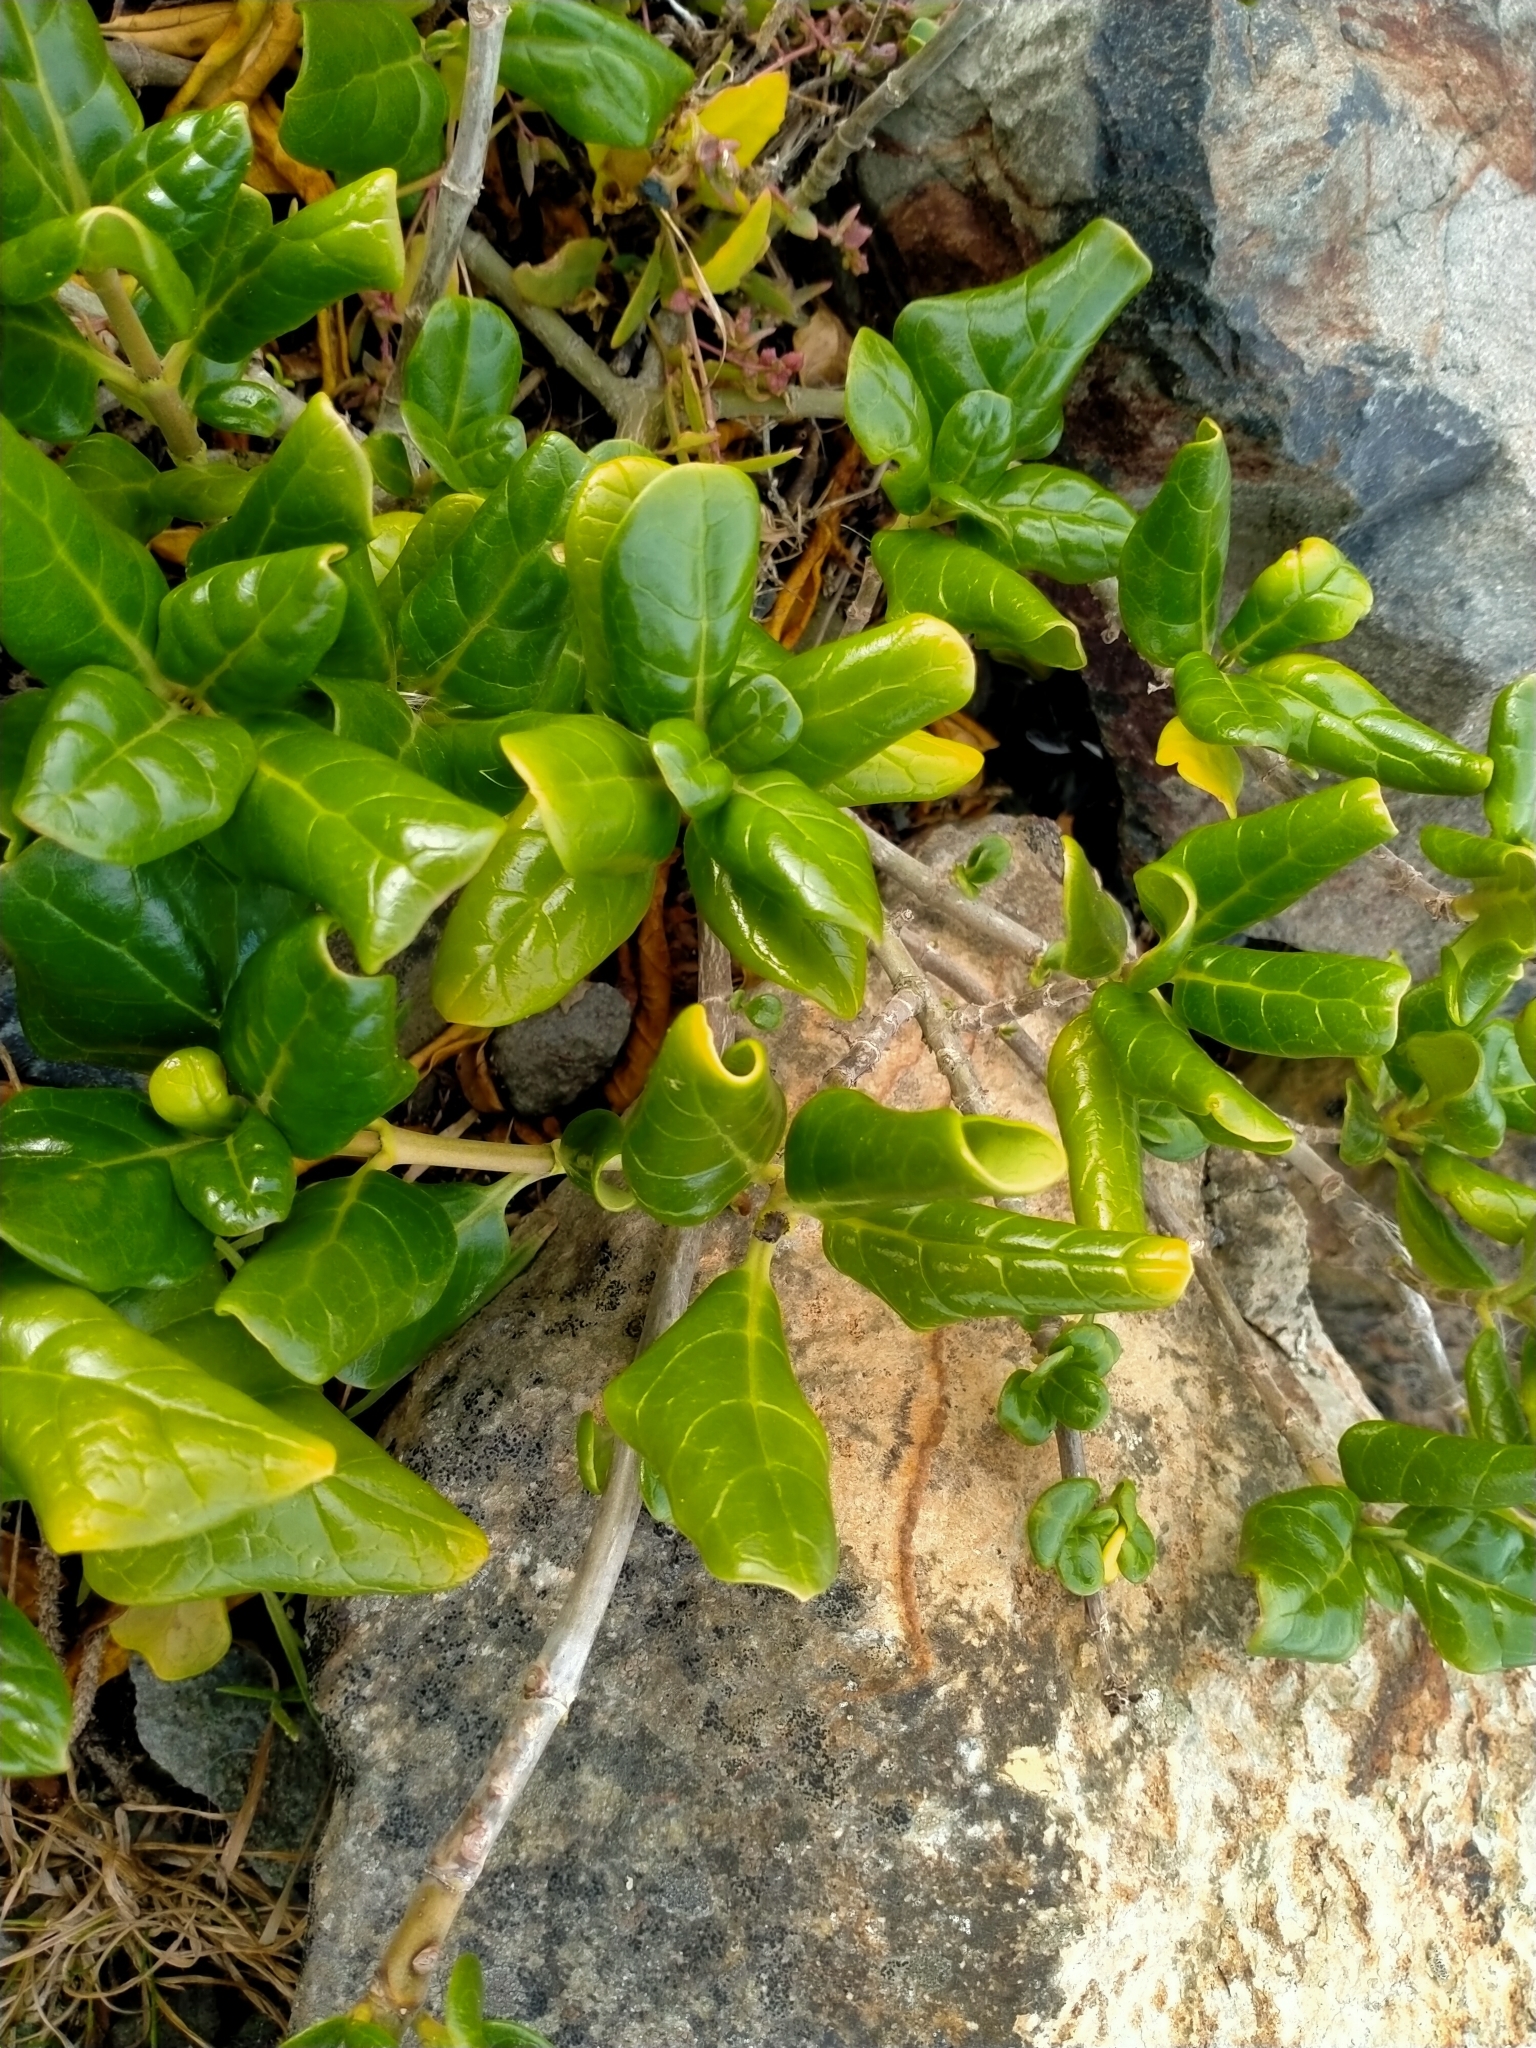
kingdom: Plantae
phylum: Tracheophyta
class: Magnoliopsida
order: Gentianales
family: Rubiaceae
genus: Coprosma
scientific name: Coprosma repens
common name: Tree bedstraw
